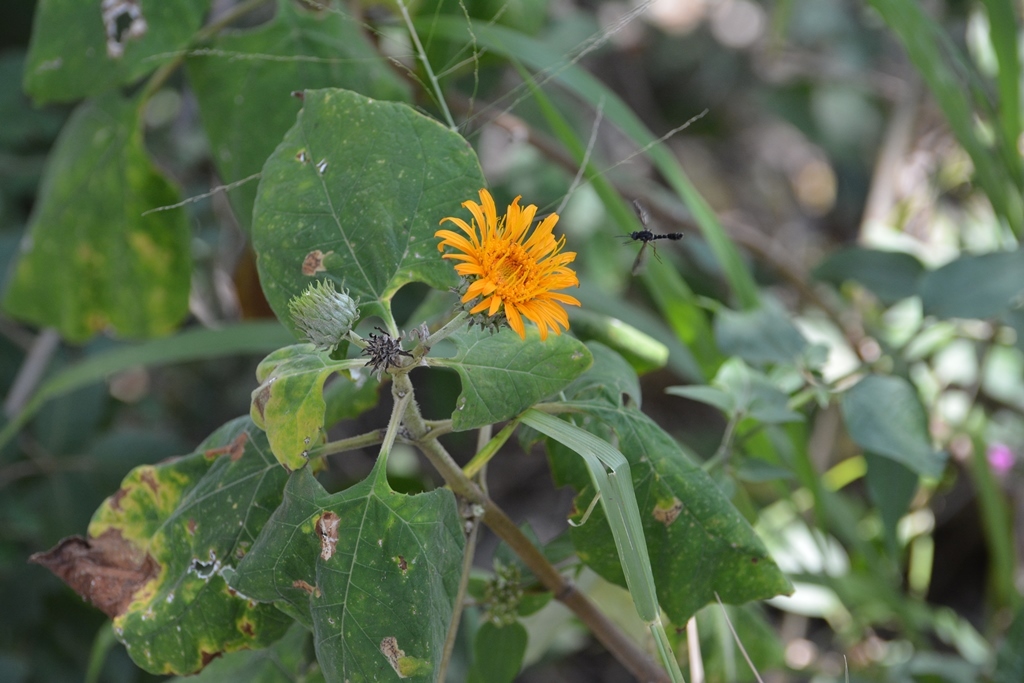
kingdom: Plantae
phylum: Tracheophyta
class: Magnoliopsida
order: Asterales
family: Asteraceae
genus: Sinclairia
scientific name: Sinclairia andrieuxii
